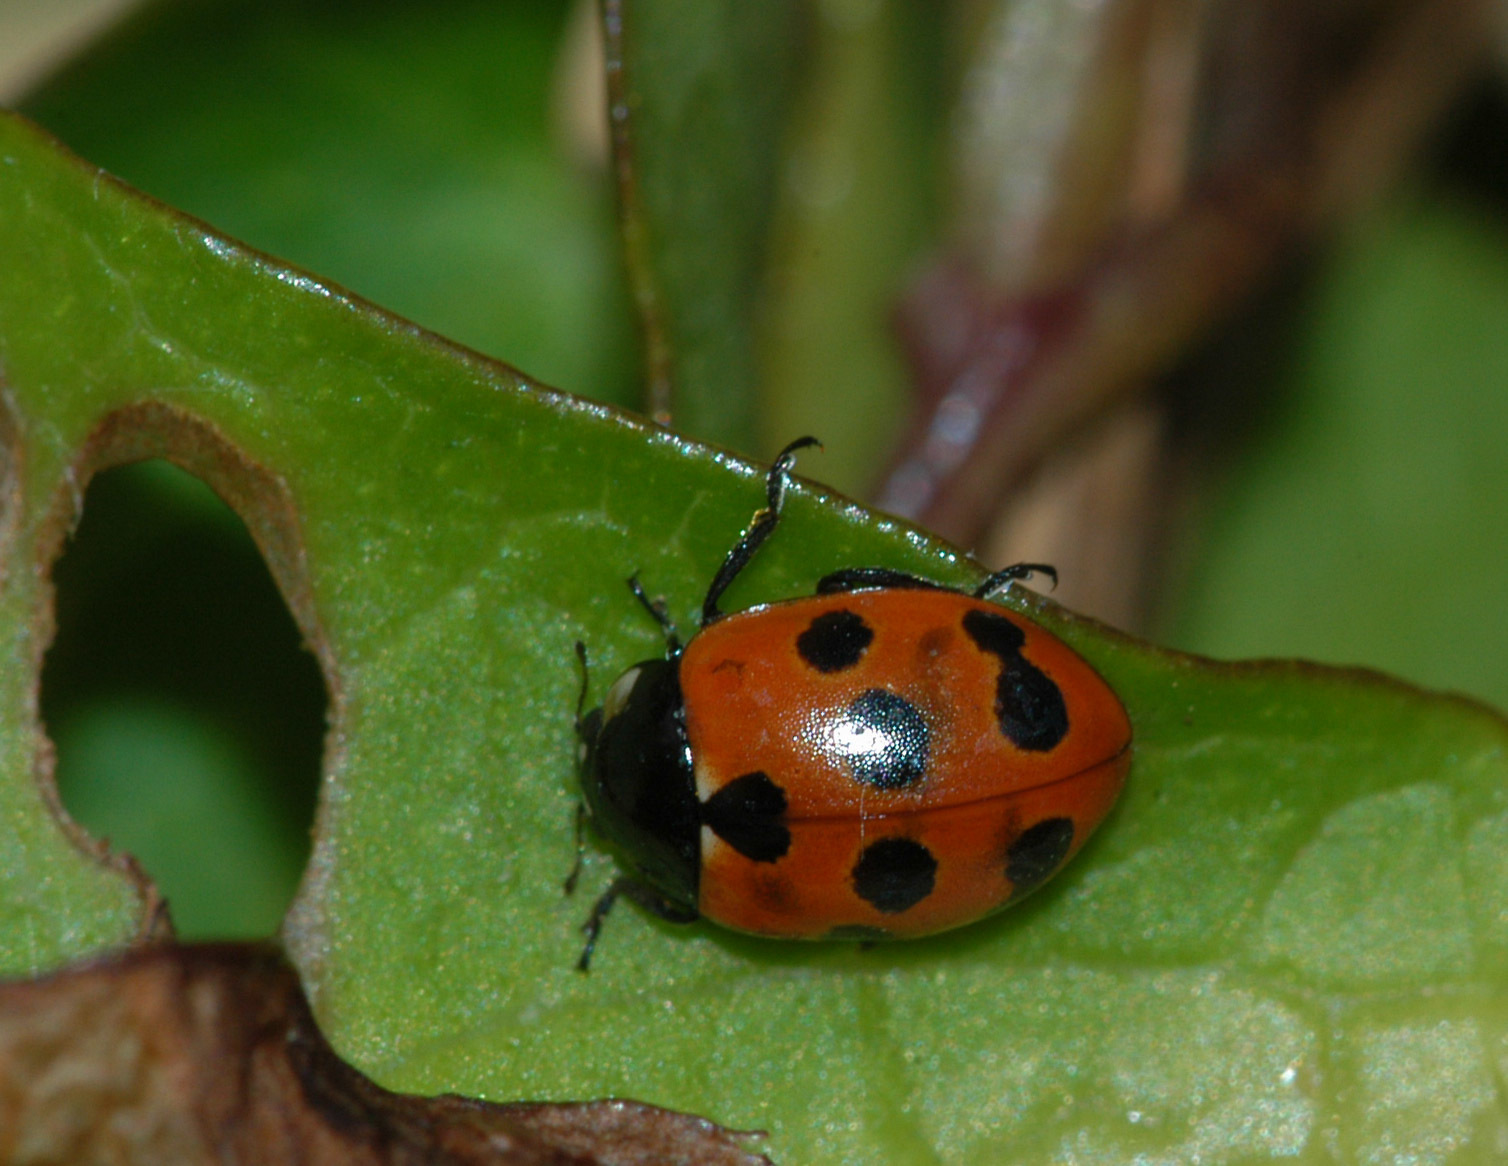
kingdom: Animalia
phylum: Arthropoda
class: Insecta
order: Coleoptera
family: Coccinellidae
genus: Coccinella
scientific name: Coccinella undecimpunctata
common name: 11-spot ladybird
